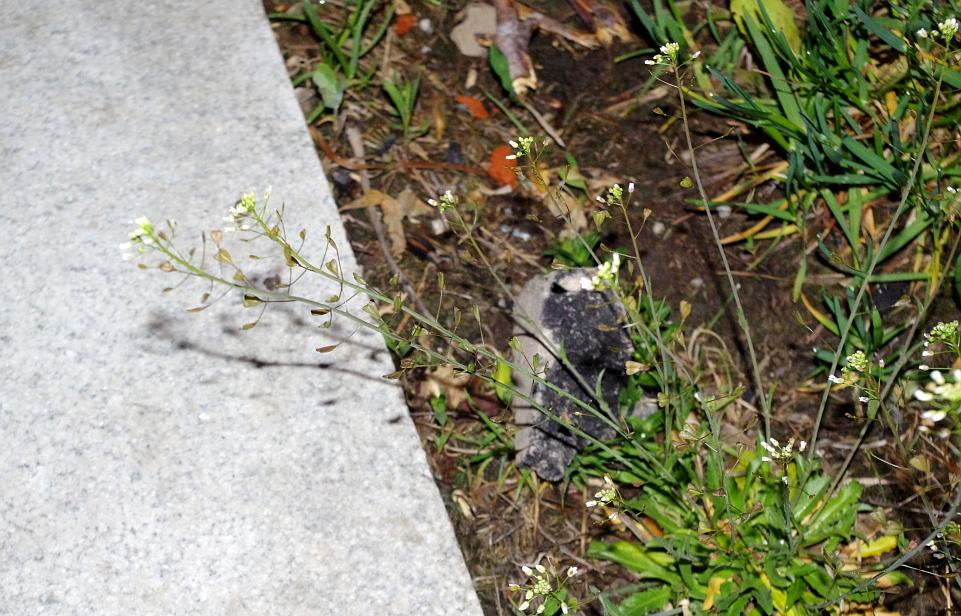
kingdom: Plantae
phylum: Tracheophyta
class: Magnoliopsida
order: Brassicales
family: Brassicaceae
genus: Capsella
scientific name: Capsella bursa-pastoris
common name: Shepherd's purse
